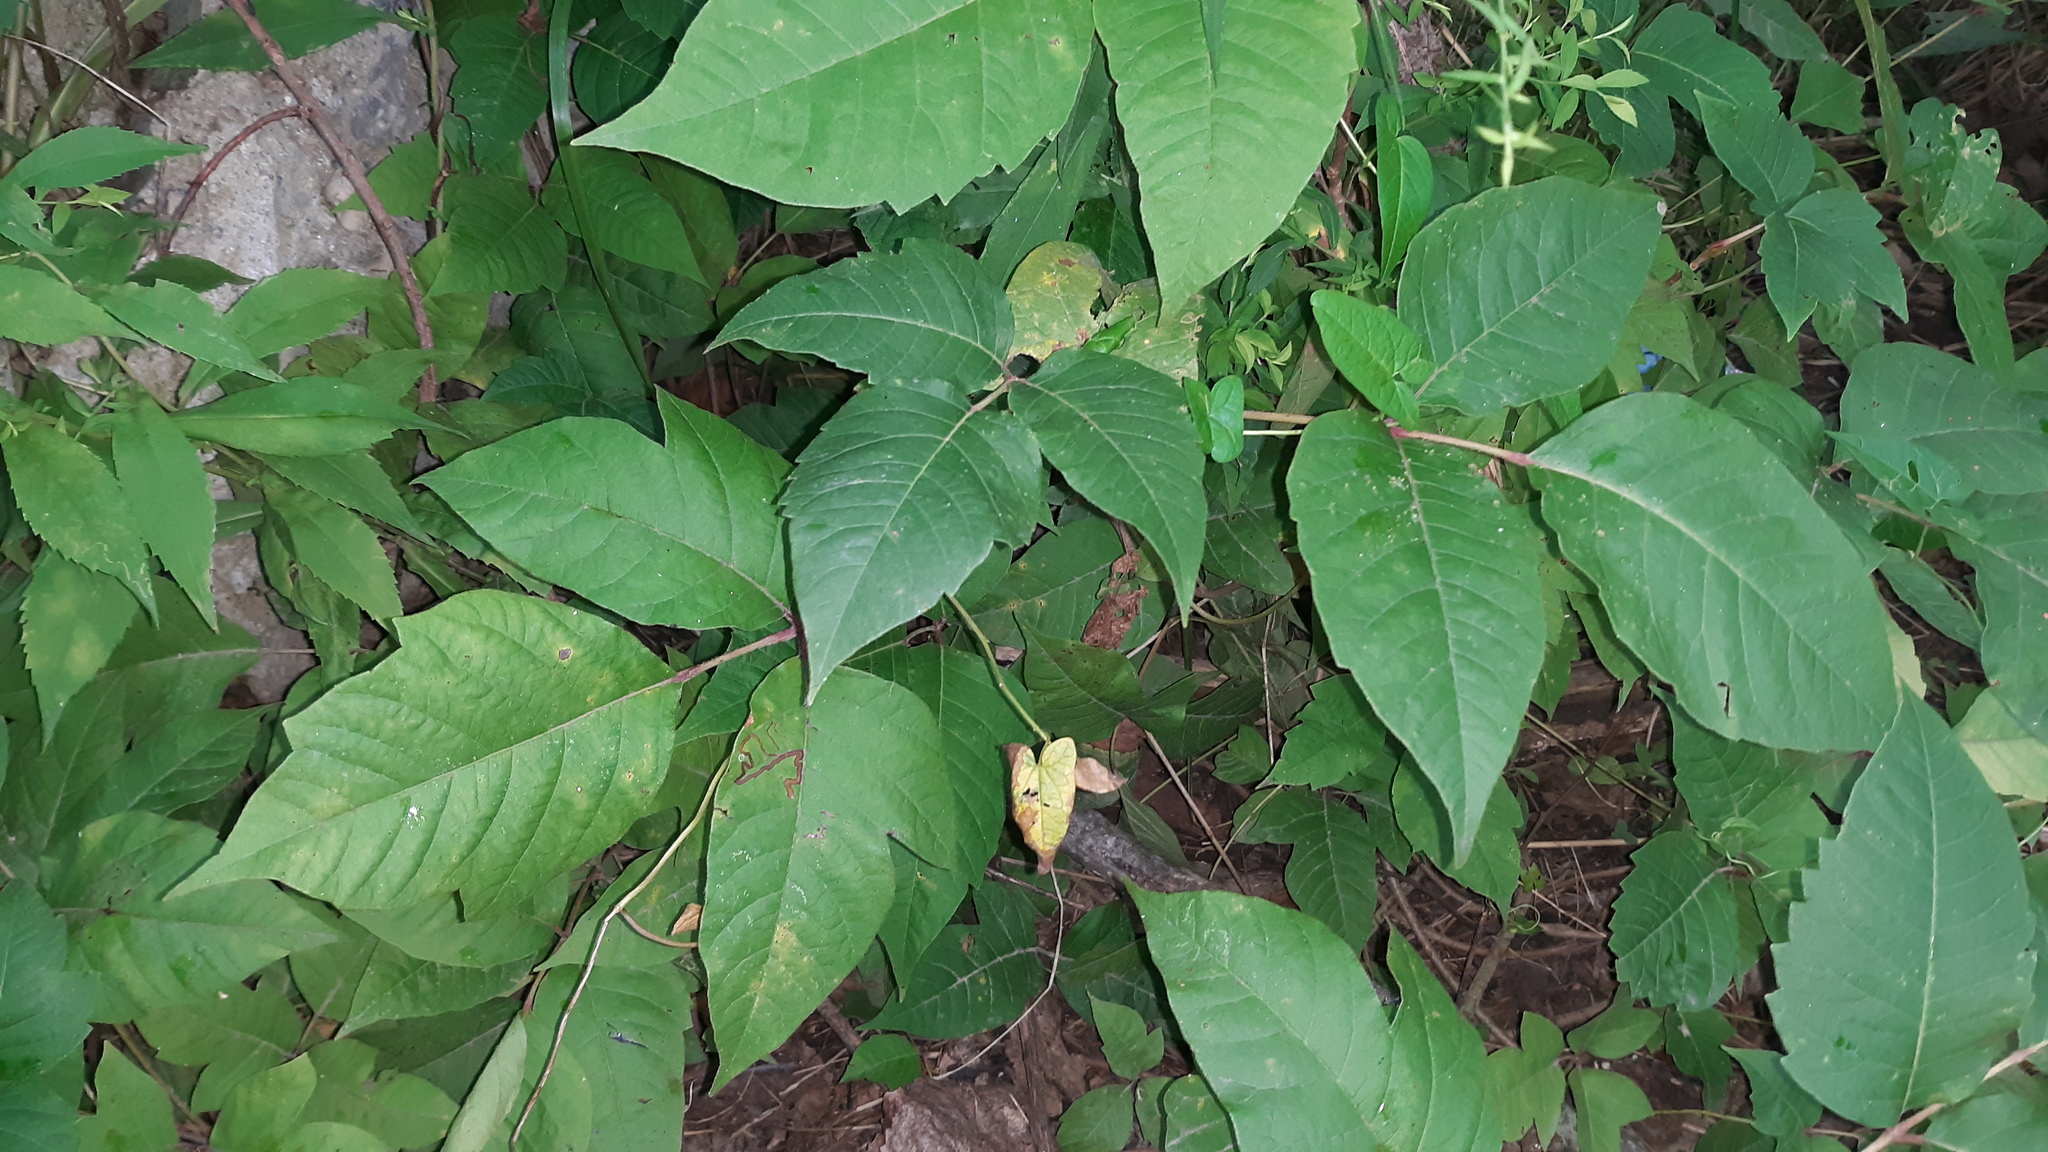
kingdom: Plantae
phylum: Tracheophyta
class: Magnoliopsida
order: Sapindales
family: Anacardiaceae
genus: Toxicodendron
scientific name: Toxicodendron radicans
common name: Poison ivy
